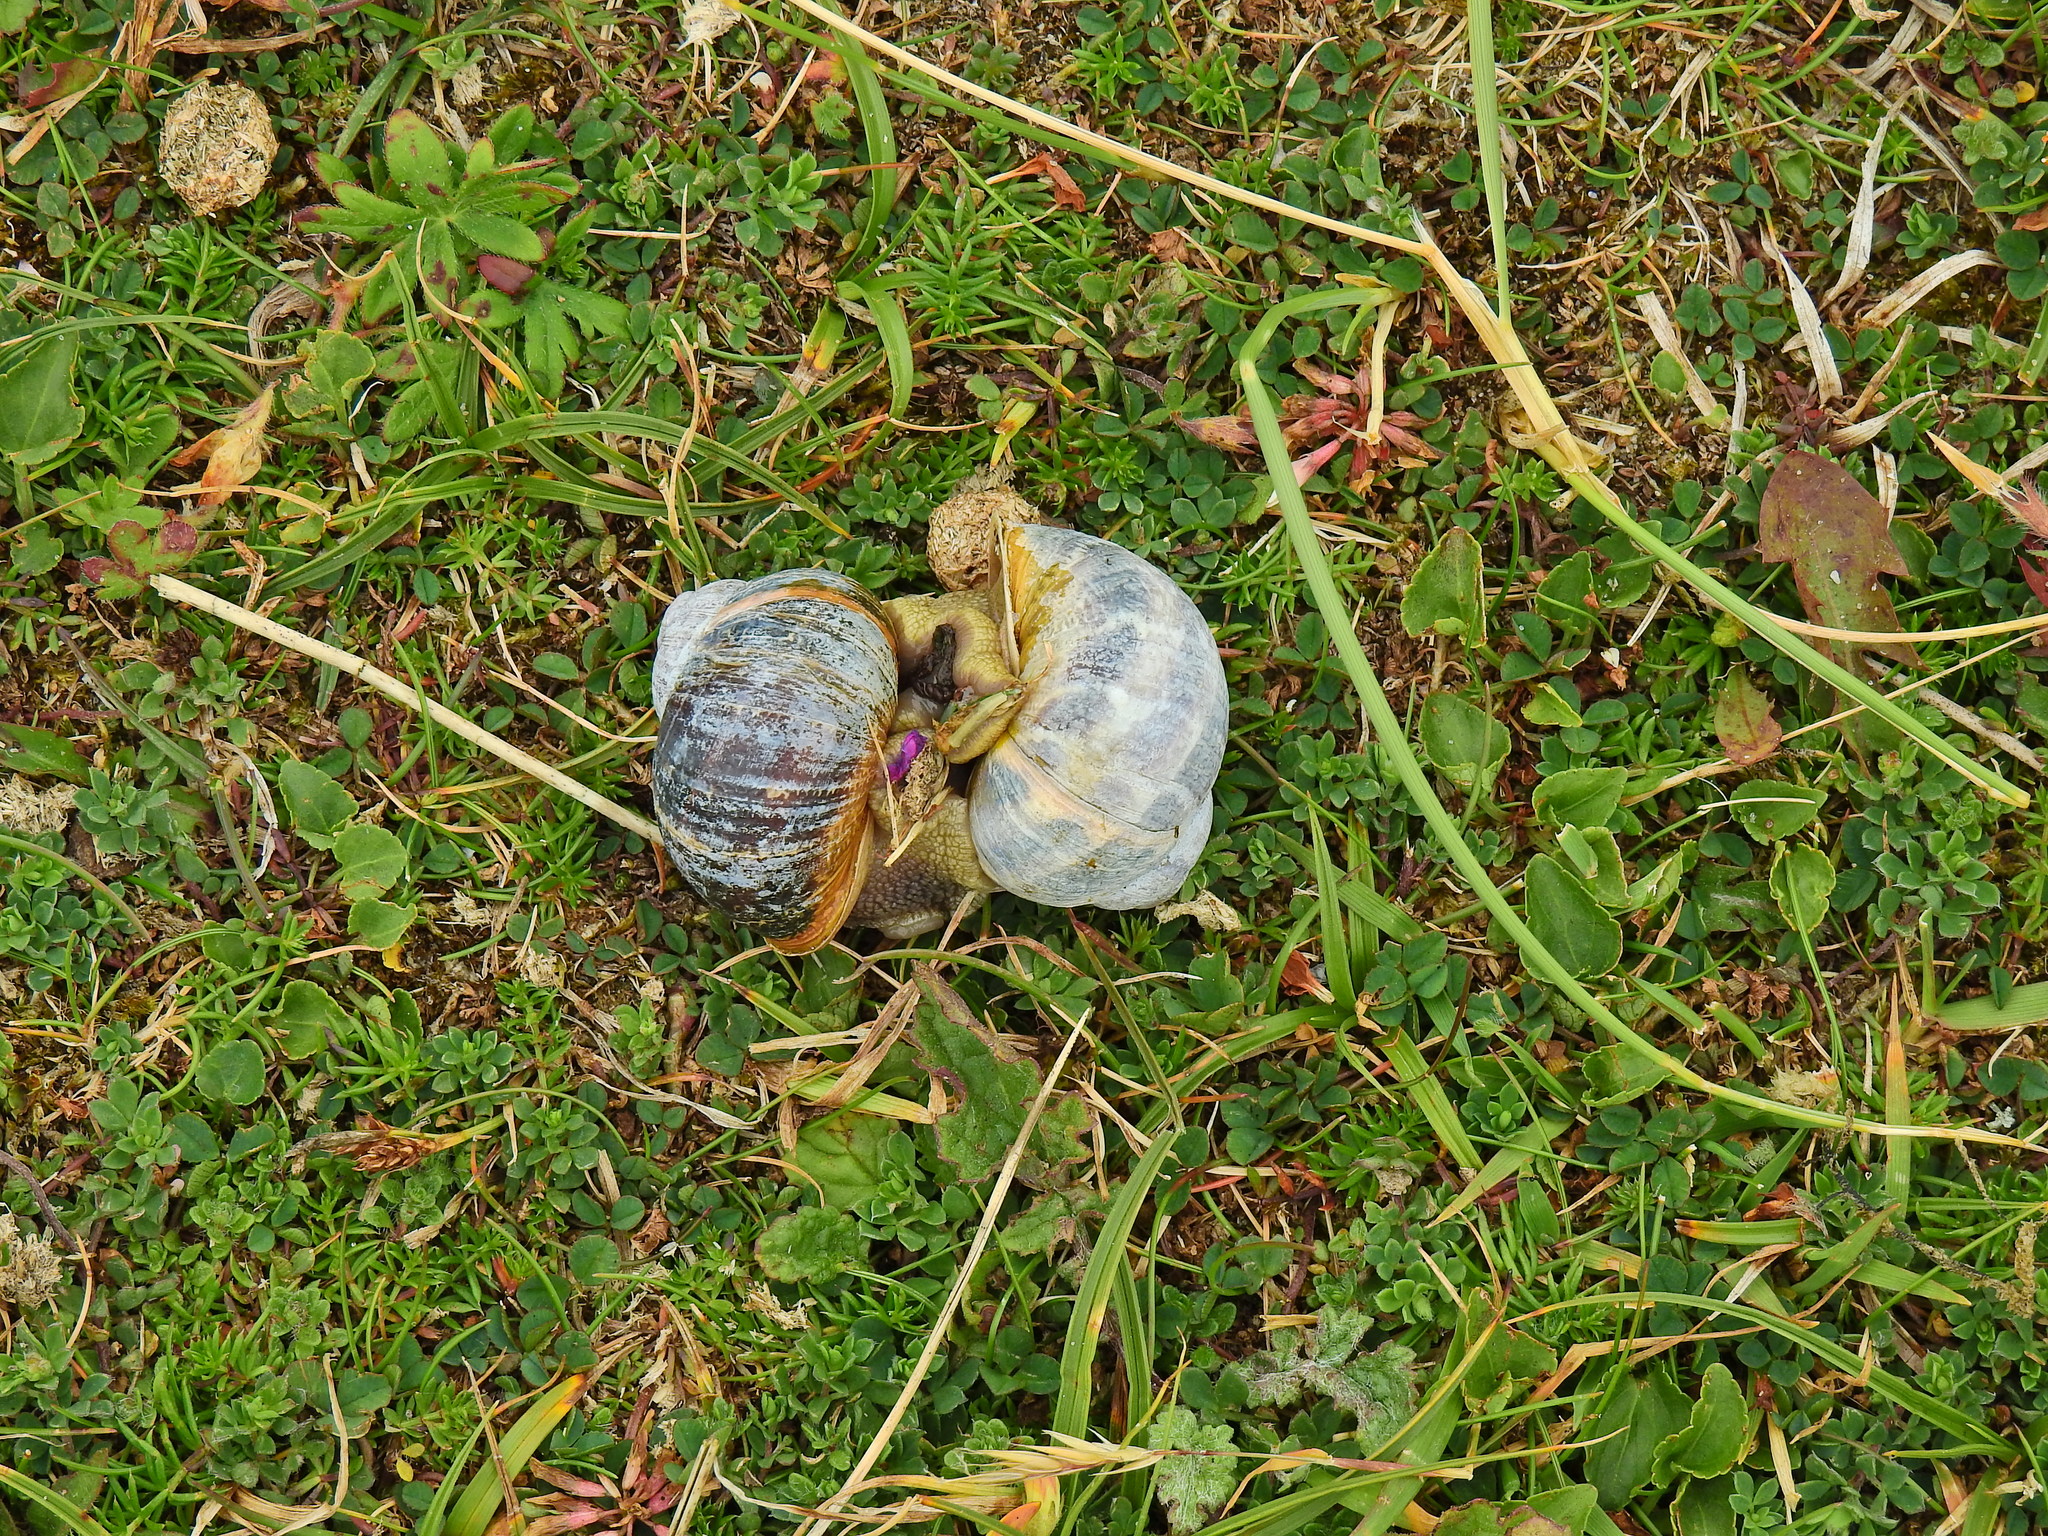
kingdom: Animalia
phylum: Mollusca
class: Gastropoda
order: Stylommatophora
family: Helicidae
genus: Cornu
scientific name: Cornu aspersum
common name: Brown garden snail
